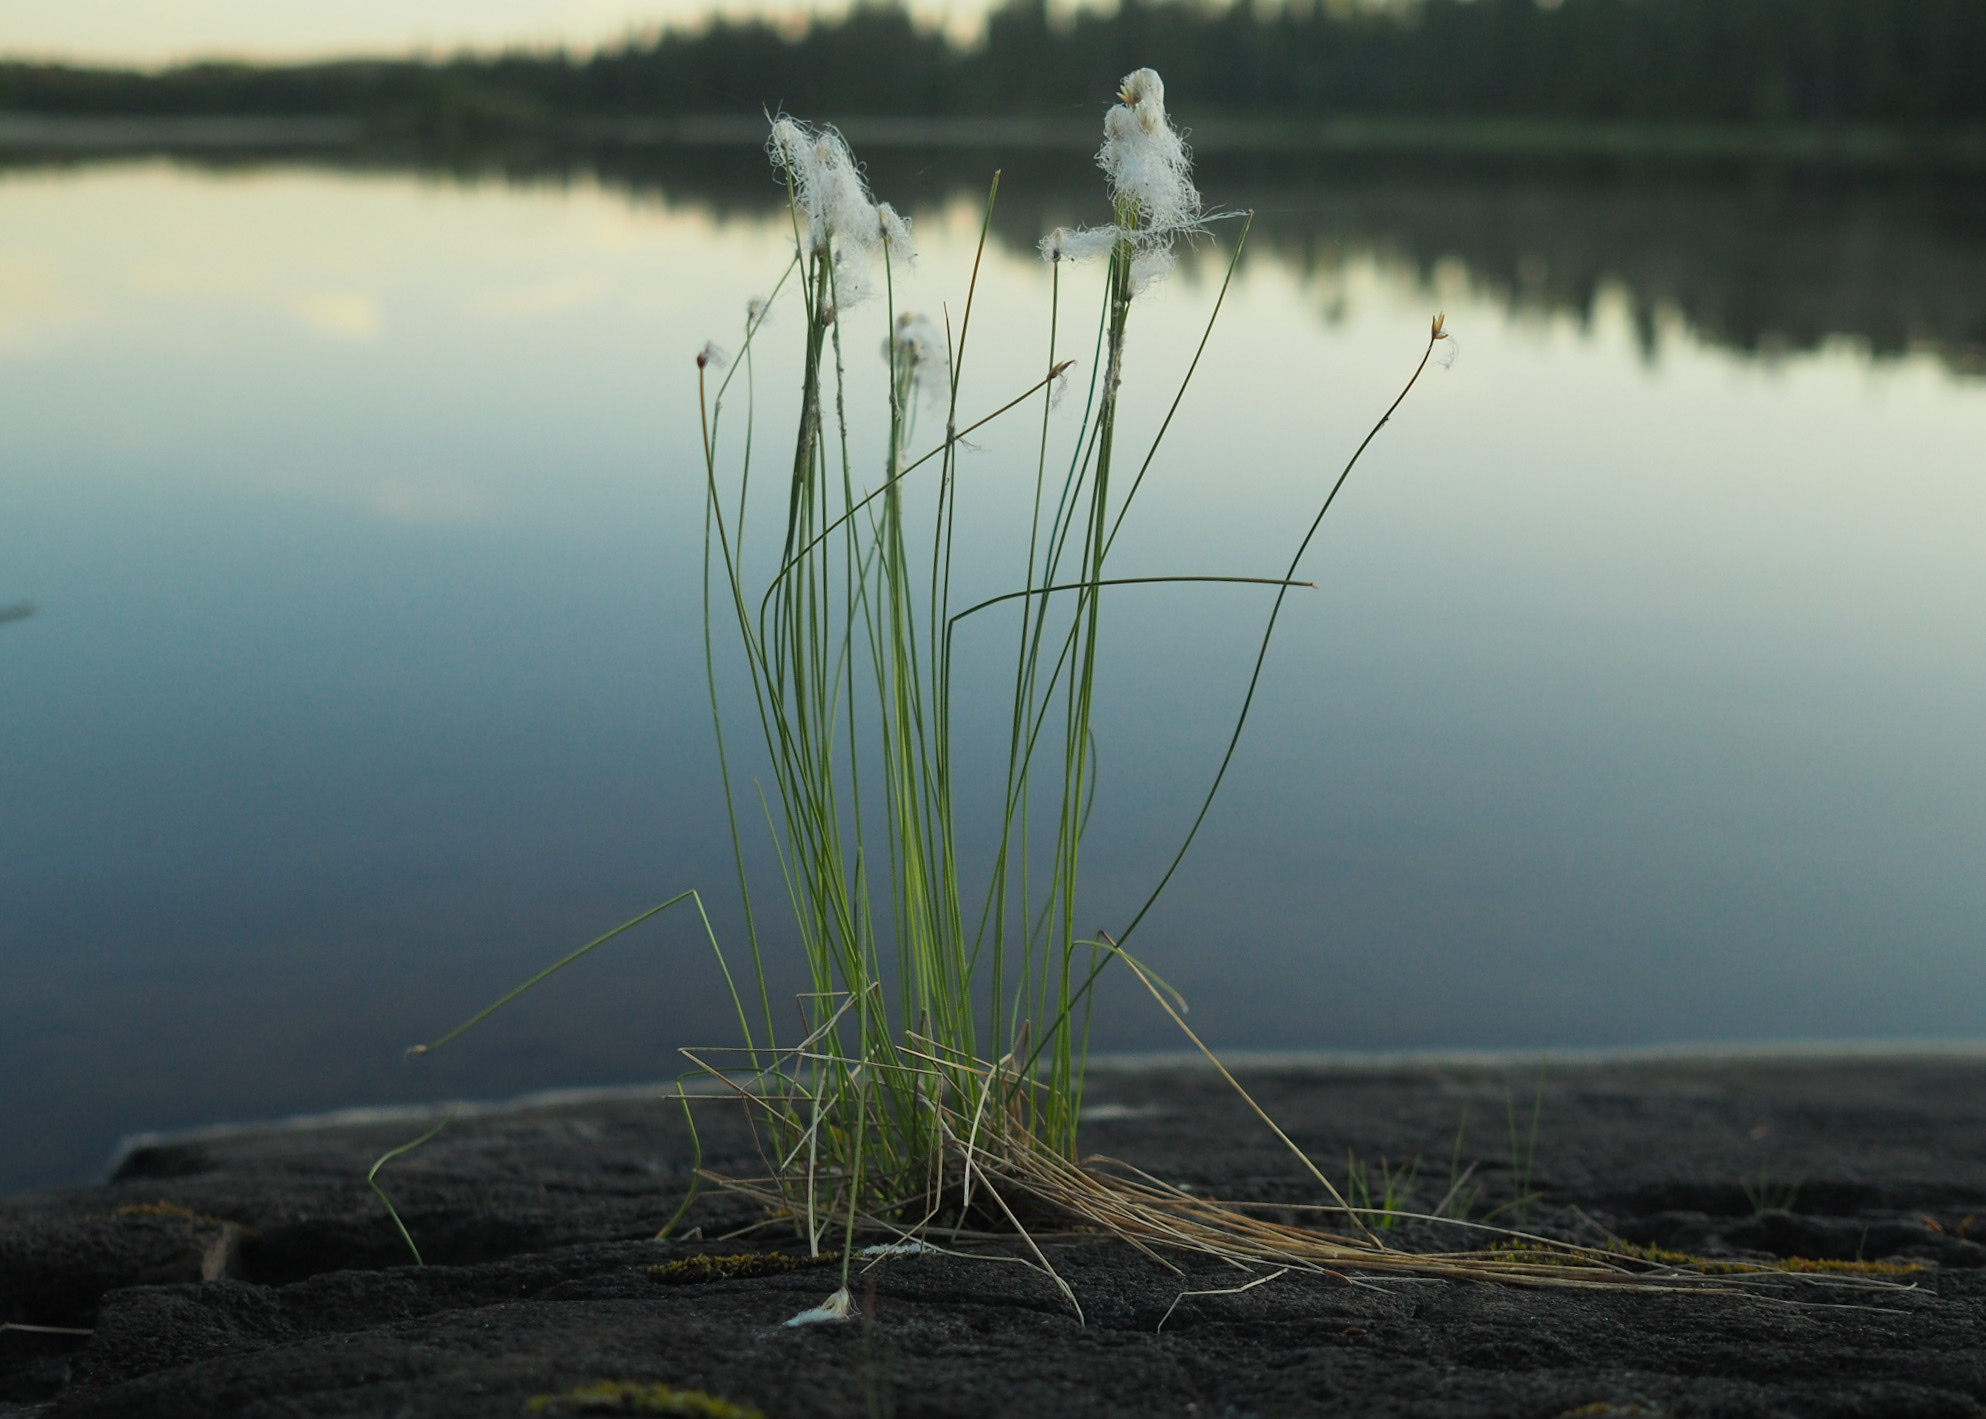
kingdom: Plantae
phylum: Tracheophyta
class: Liliopsida
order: Poales
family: Cyperaceae
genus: Trichophorum
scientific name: Trichophorum alpinum
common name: Alpine bulrush
